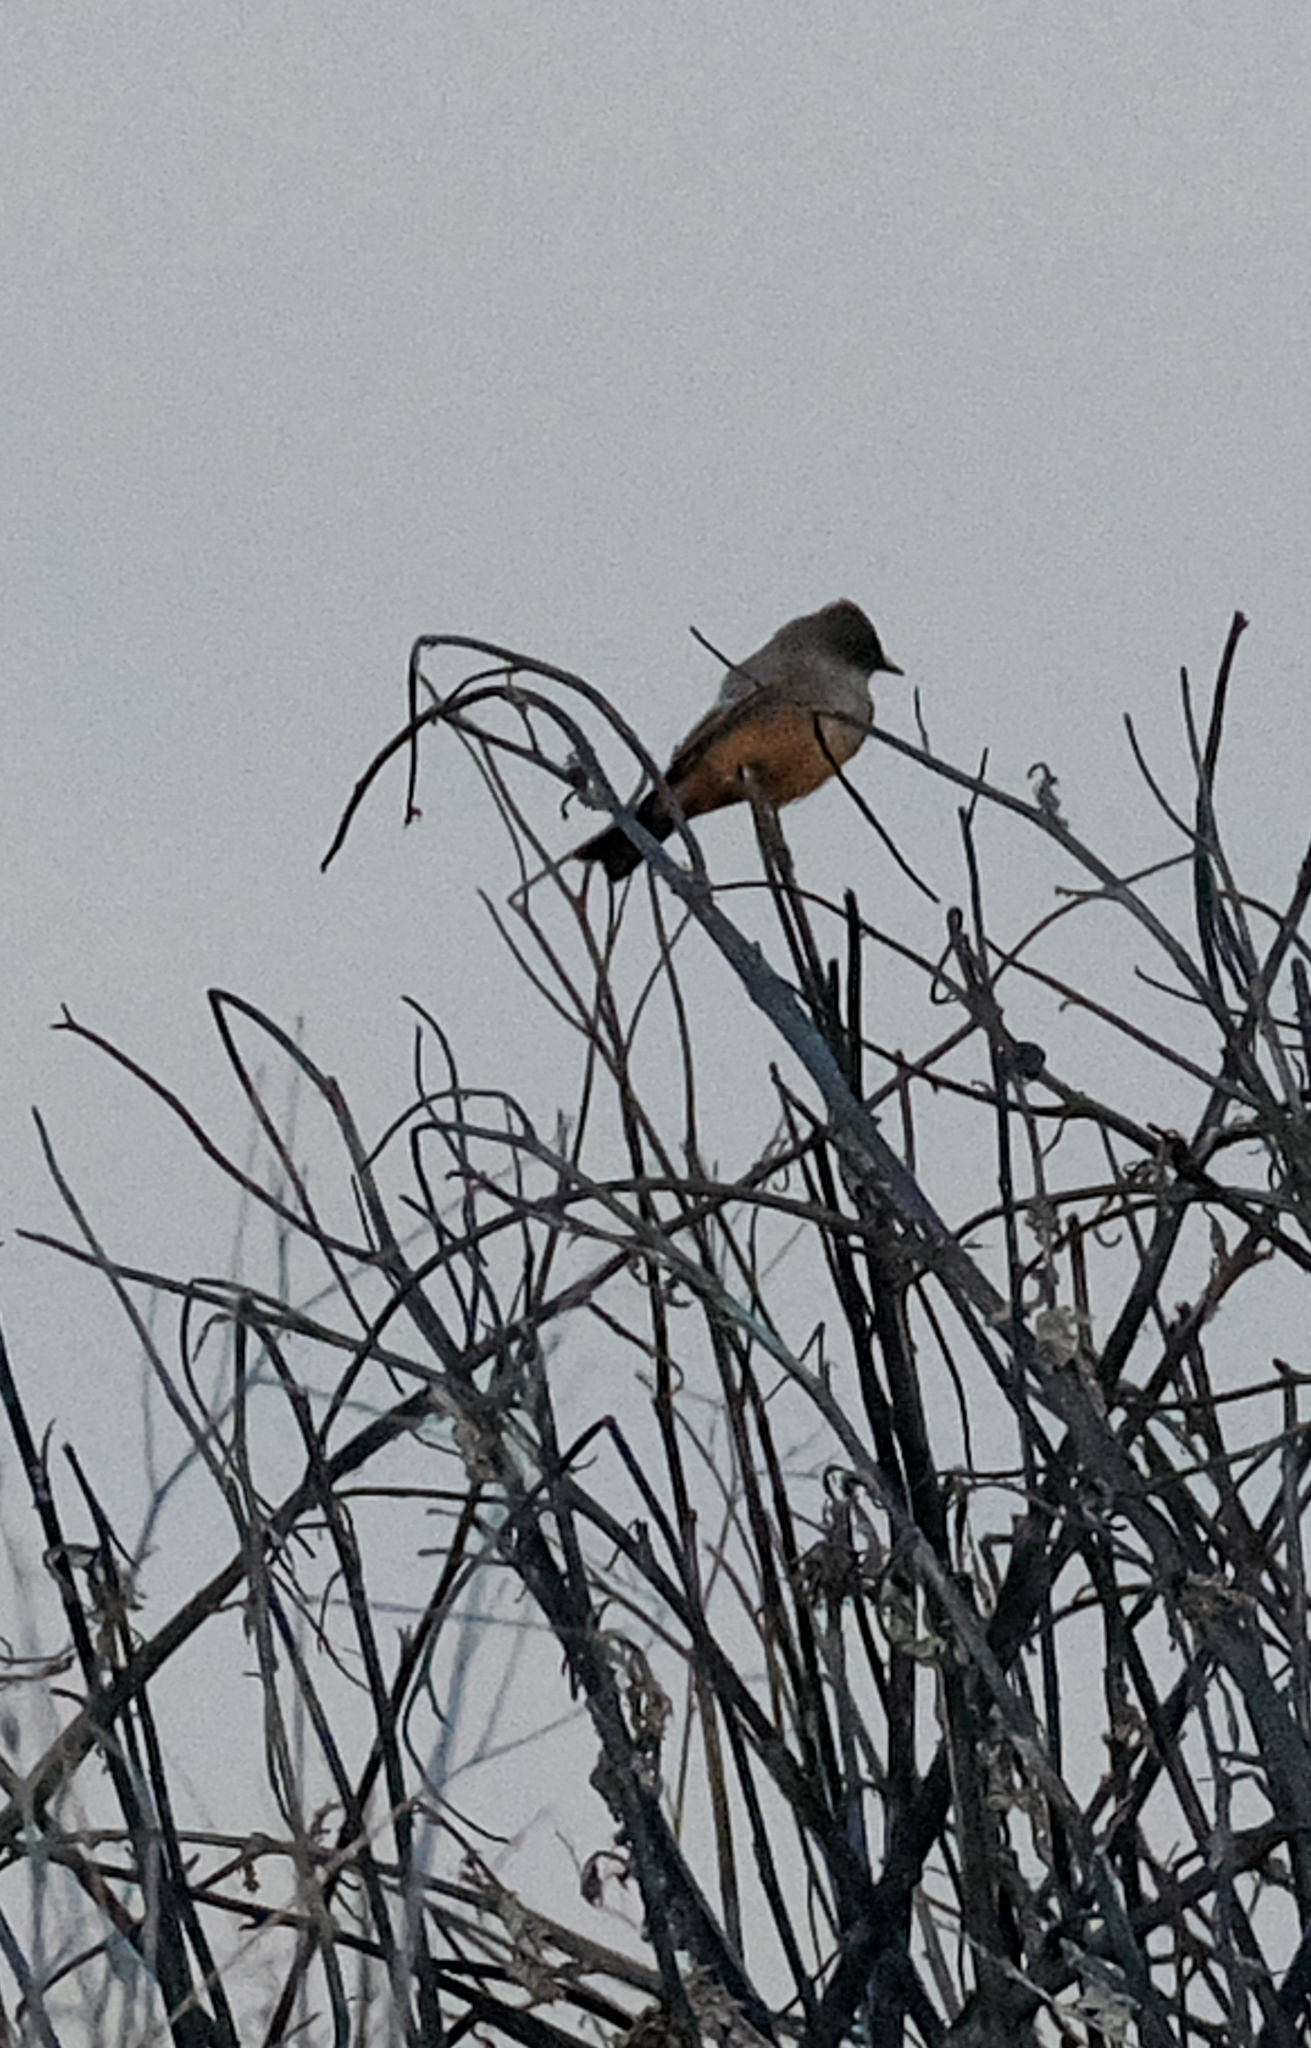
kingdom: Animalia
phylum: Chordata
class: Aves
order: Passeriformes
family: Tyrannidae
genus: Sayornis
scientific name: Sayornis saya
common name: Say's phoebe
